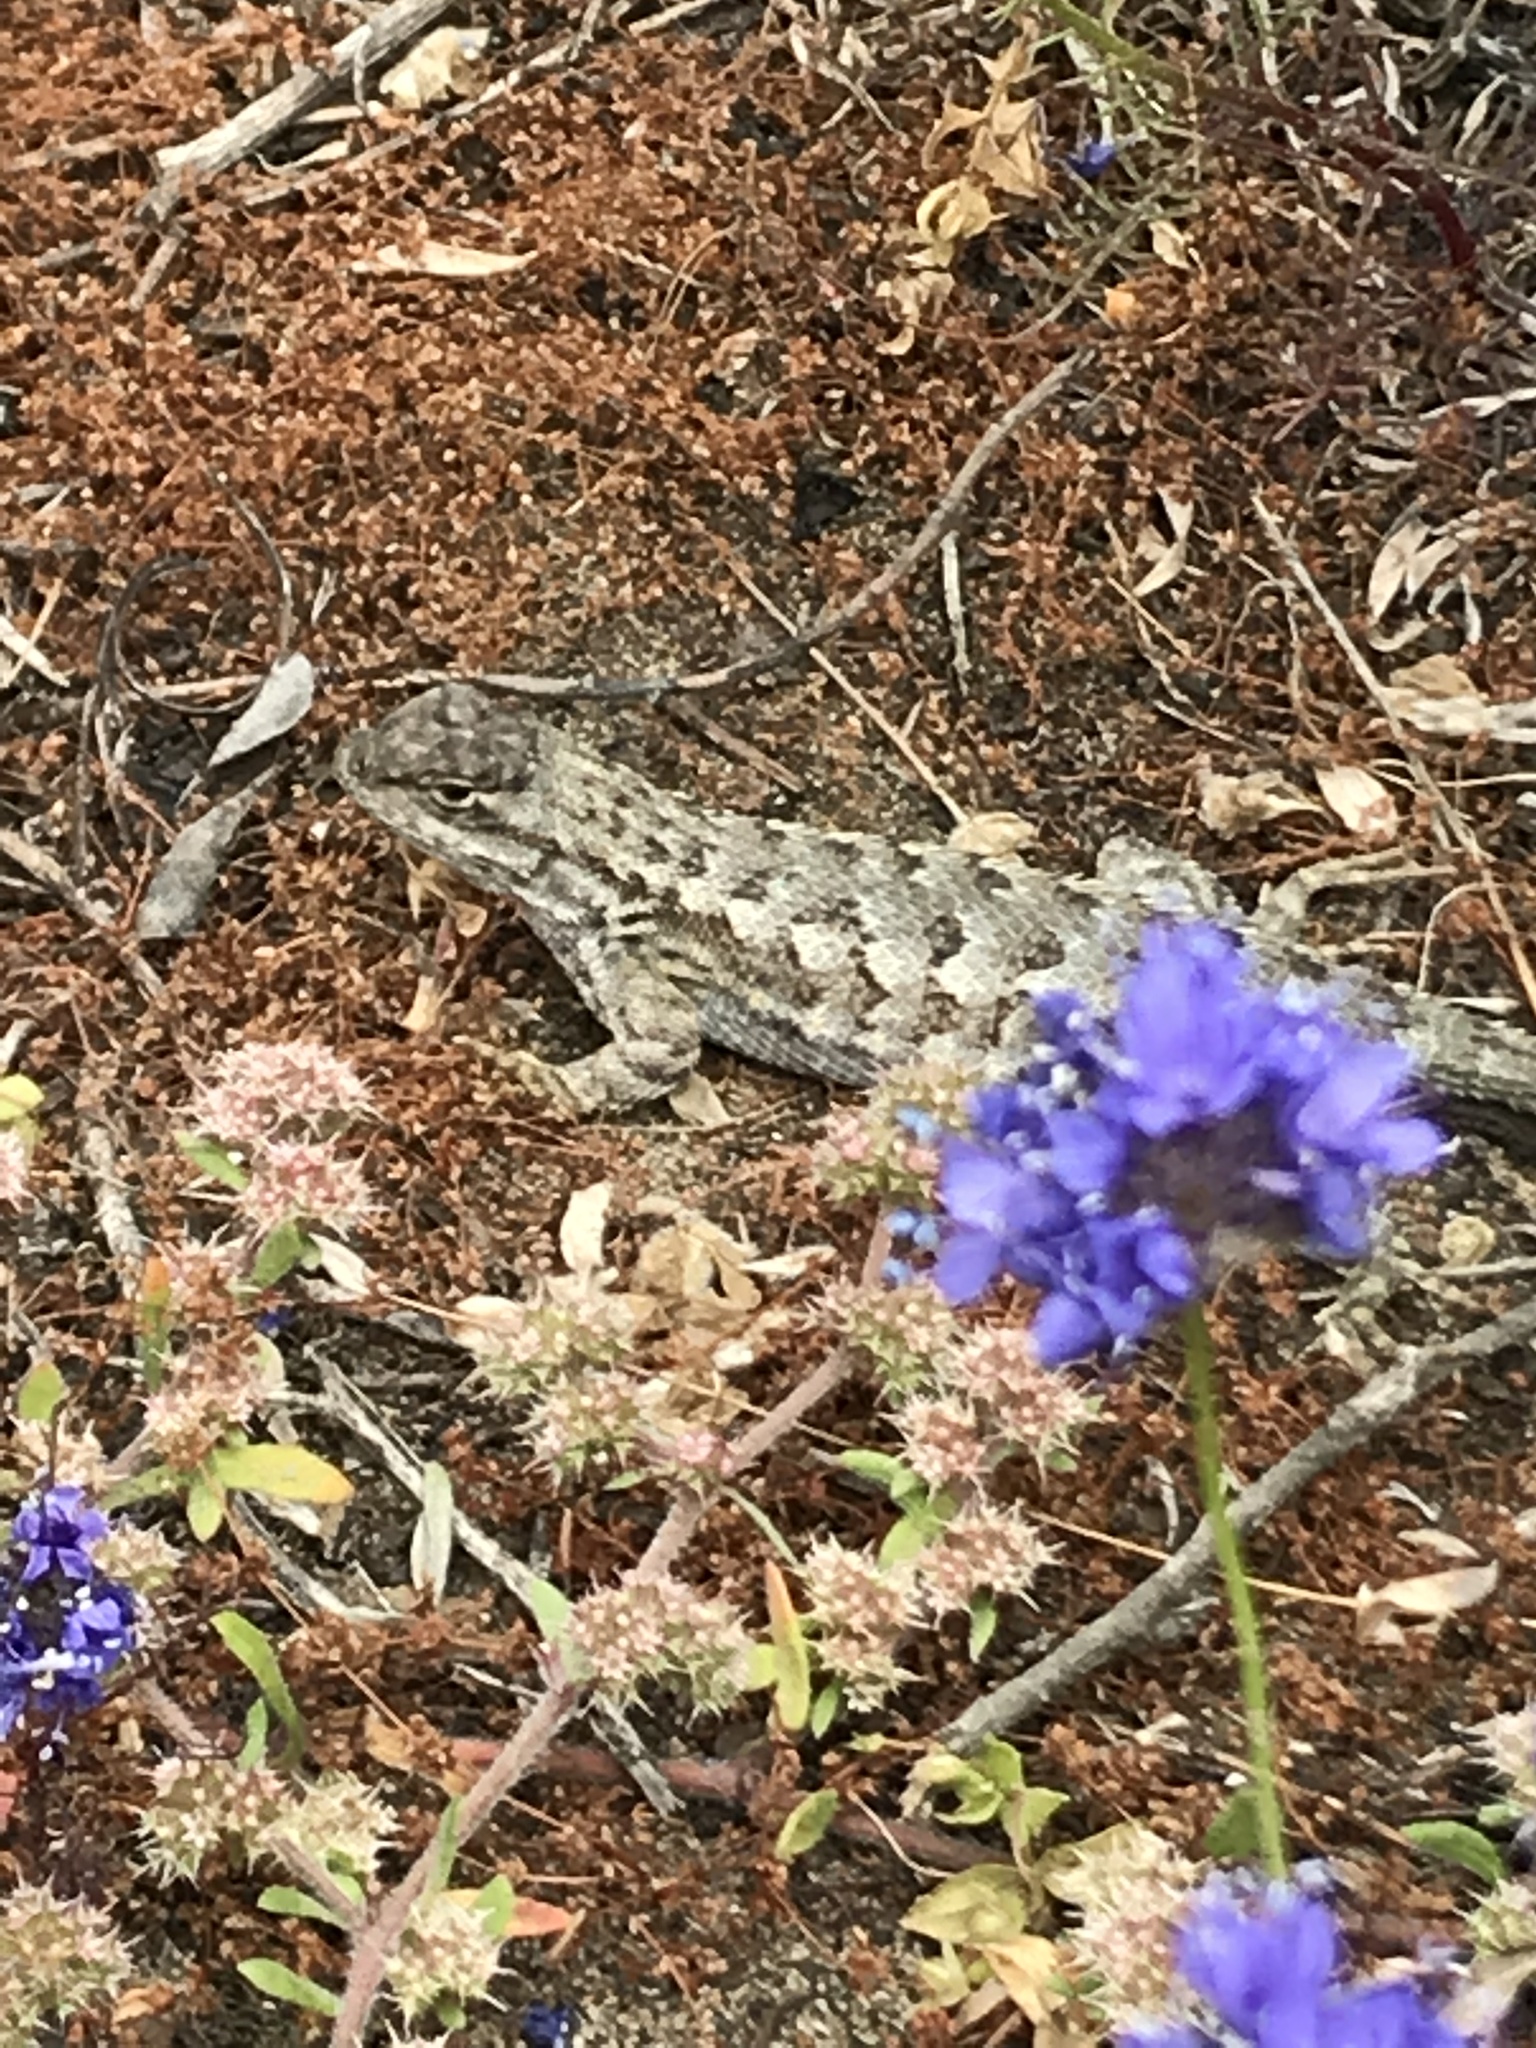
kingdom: Animalia
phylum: Chordata
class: Squamata
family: Phrynosomatidae
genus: Sceloporus
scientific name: Sceloporus occidentalis
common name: Western fence lizard
